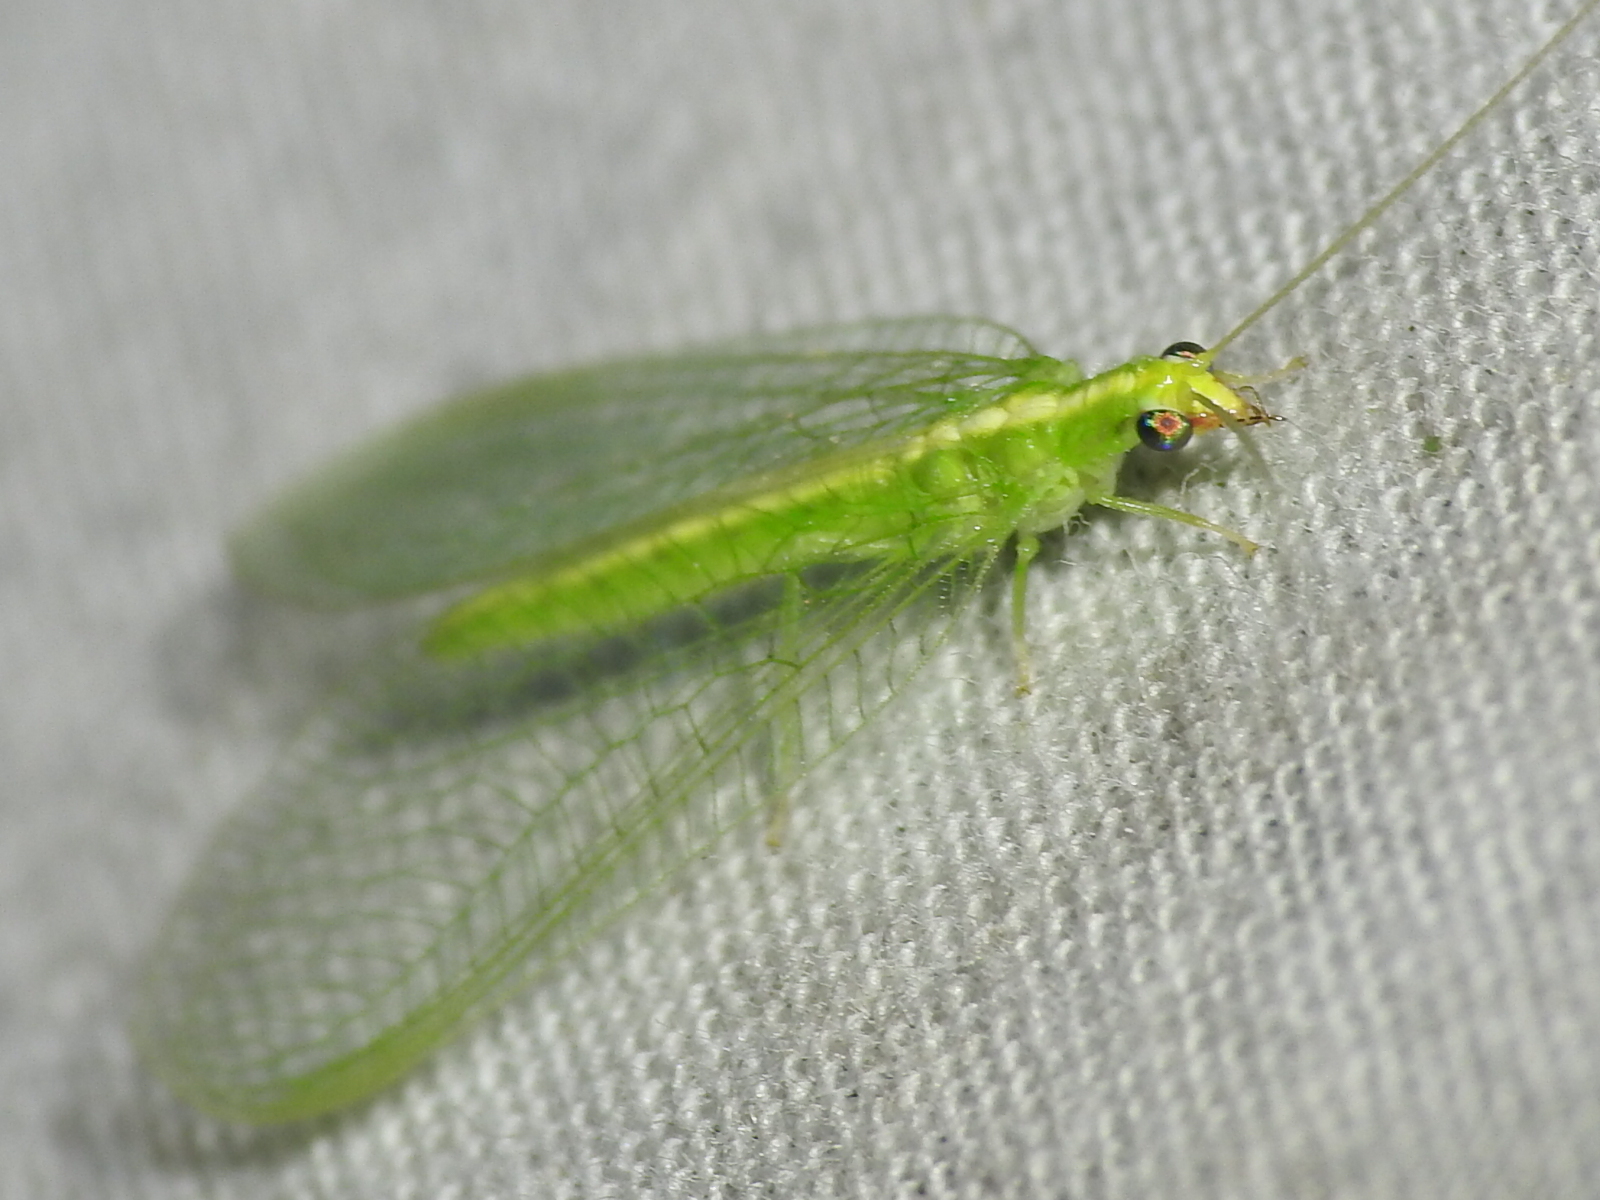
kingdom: Animalia
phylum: Arthropoda
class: Insecta
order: Neuroptera
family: Chrysopidae
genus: Chrysoperla
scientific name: Chrysoperla rufilabris
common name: Red-lipped green lacewing
